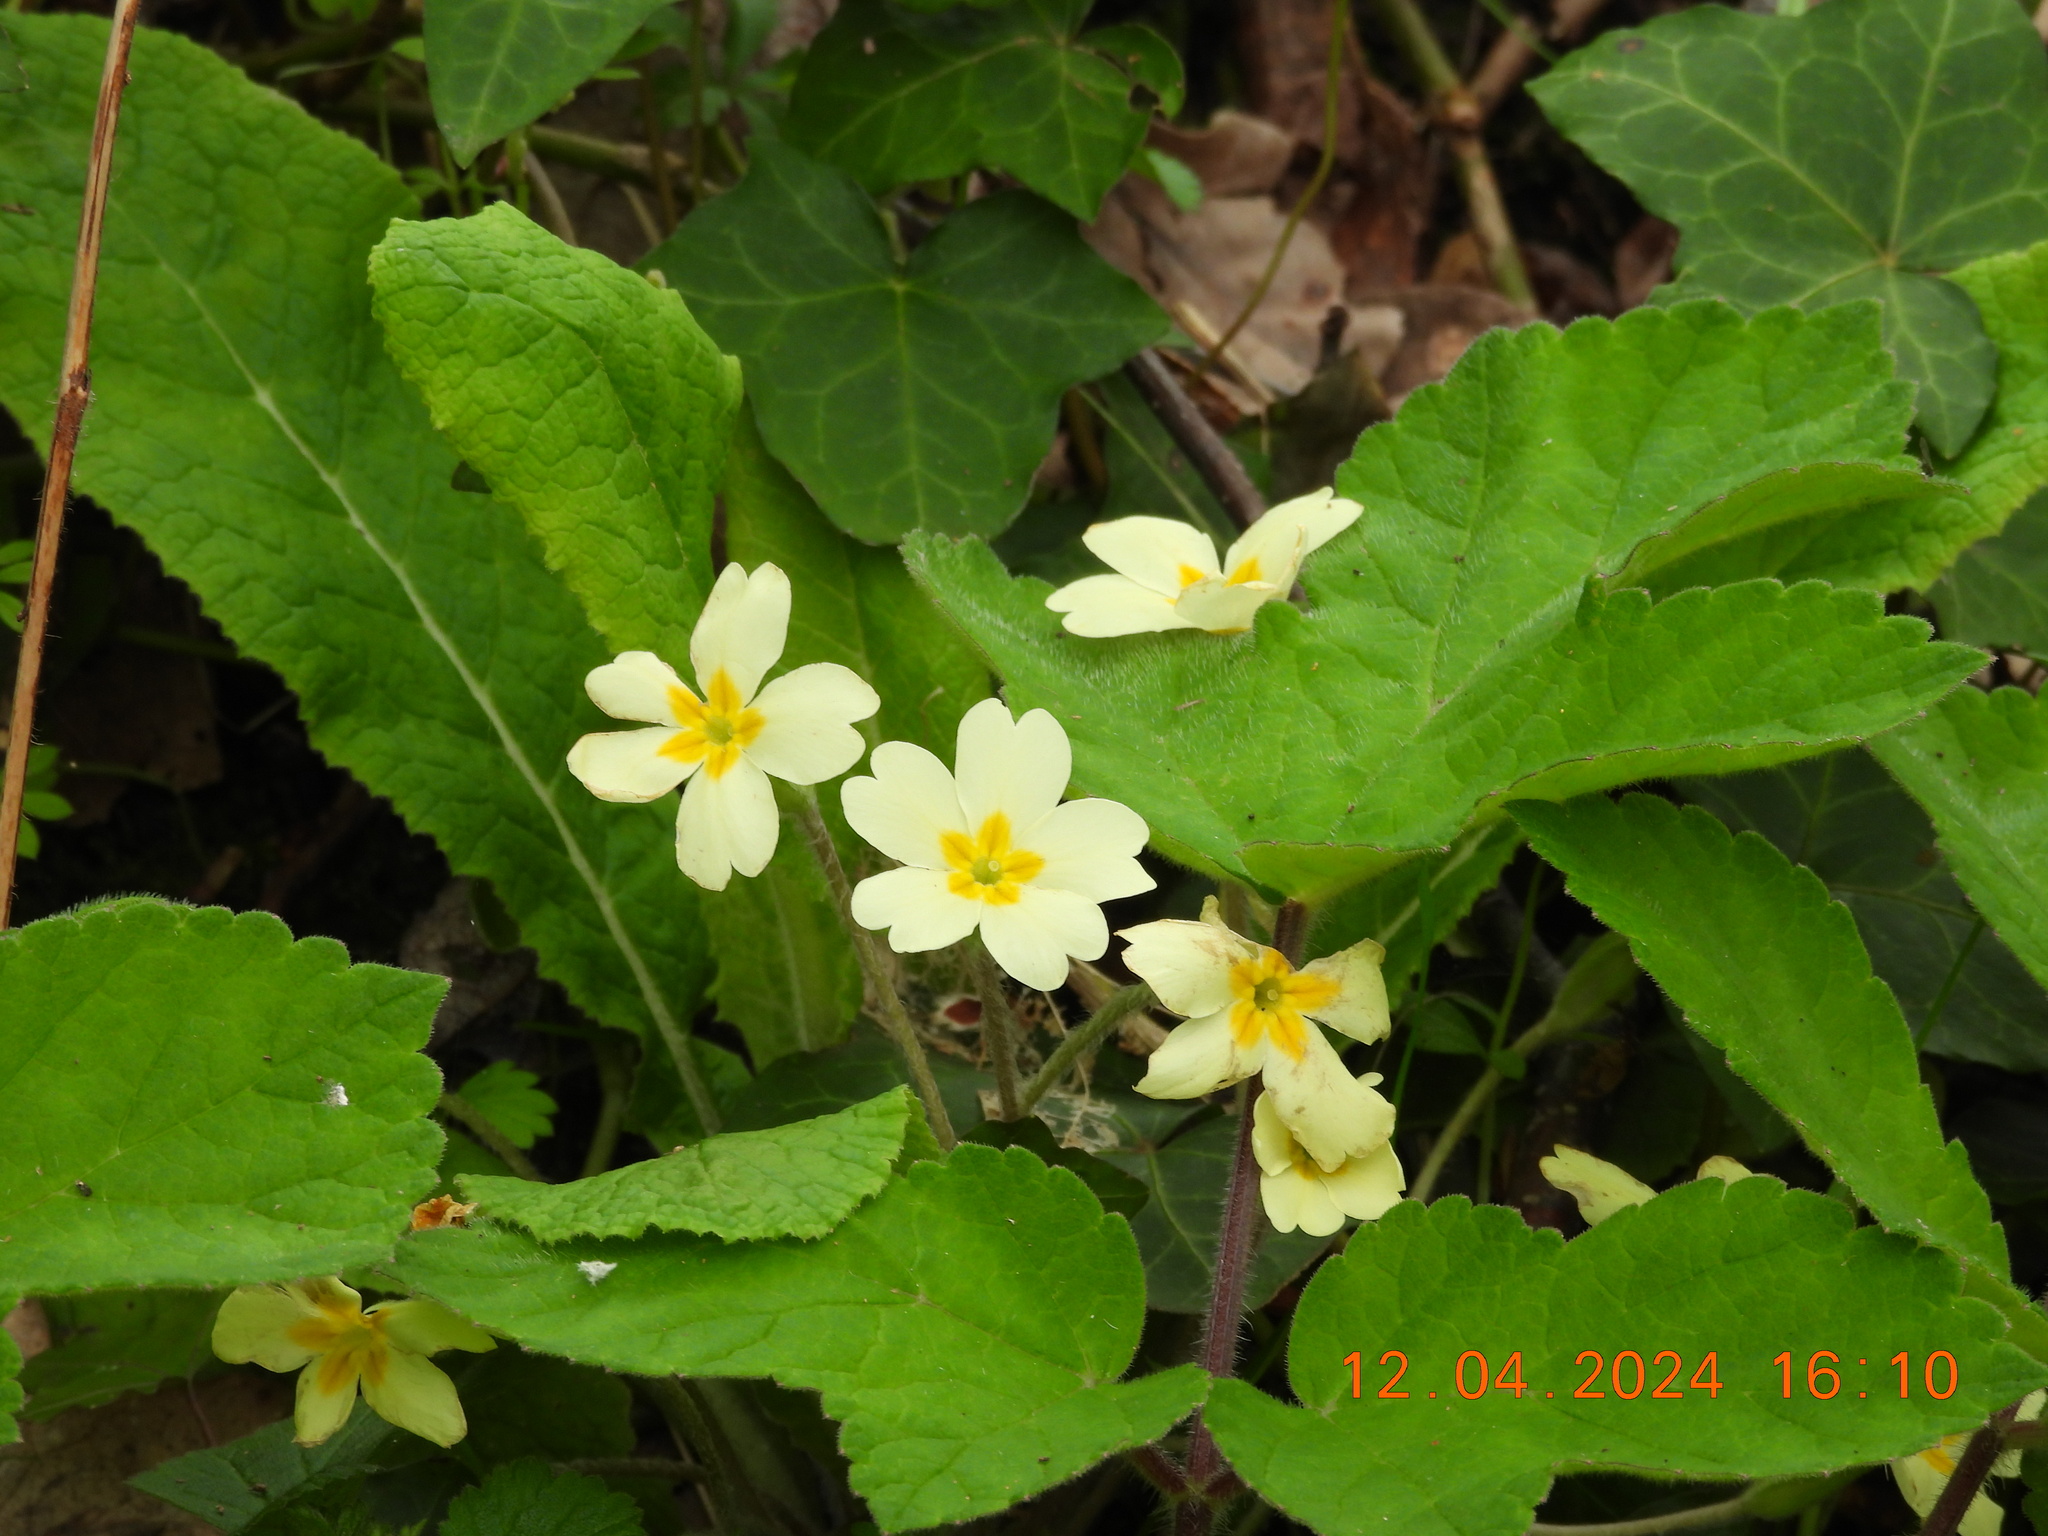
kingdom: Plantae
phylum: Tracheophyta
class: Magnoliopsida
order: Ericales
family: Primulaceae
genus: Primula
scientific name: Primula vulgaris
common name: Primrose
